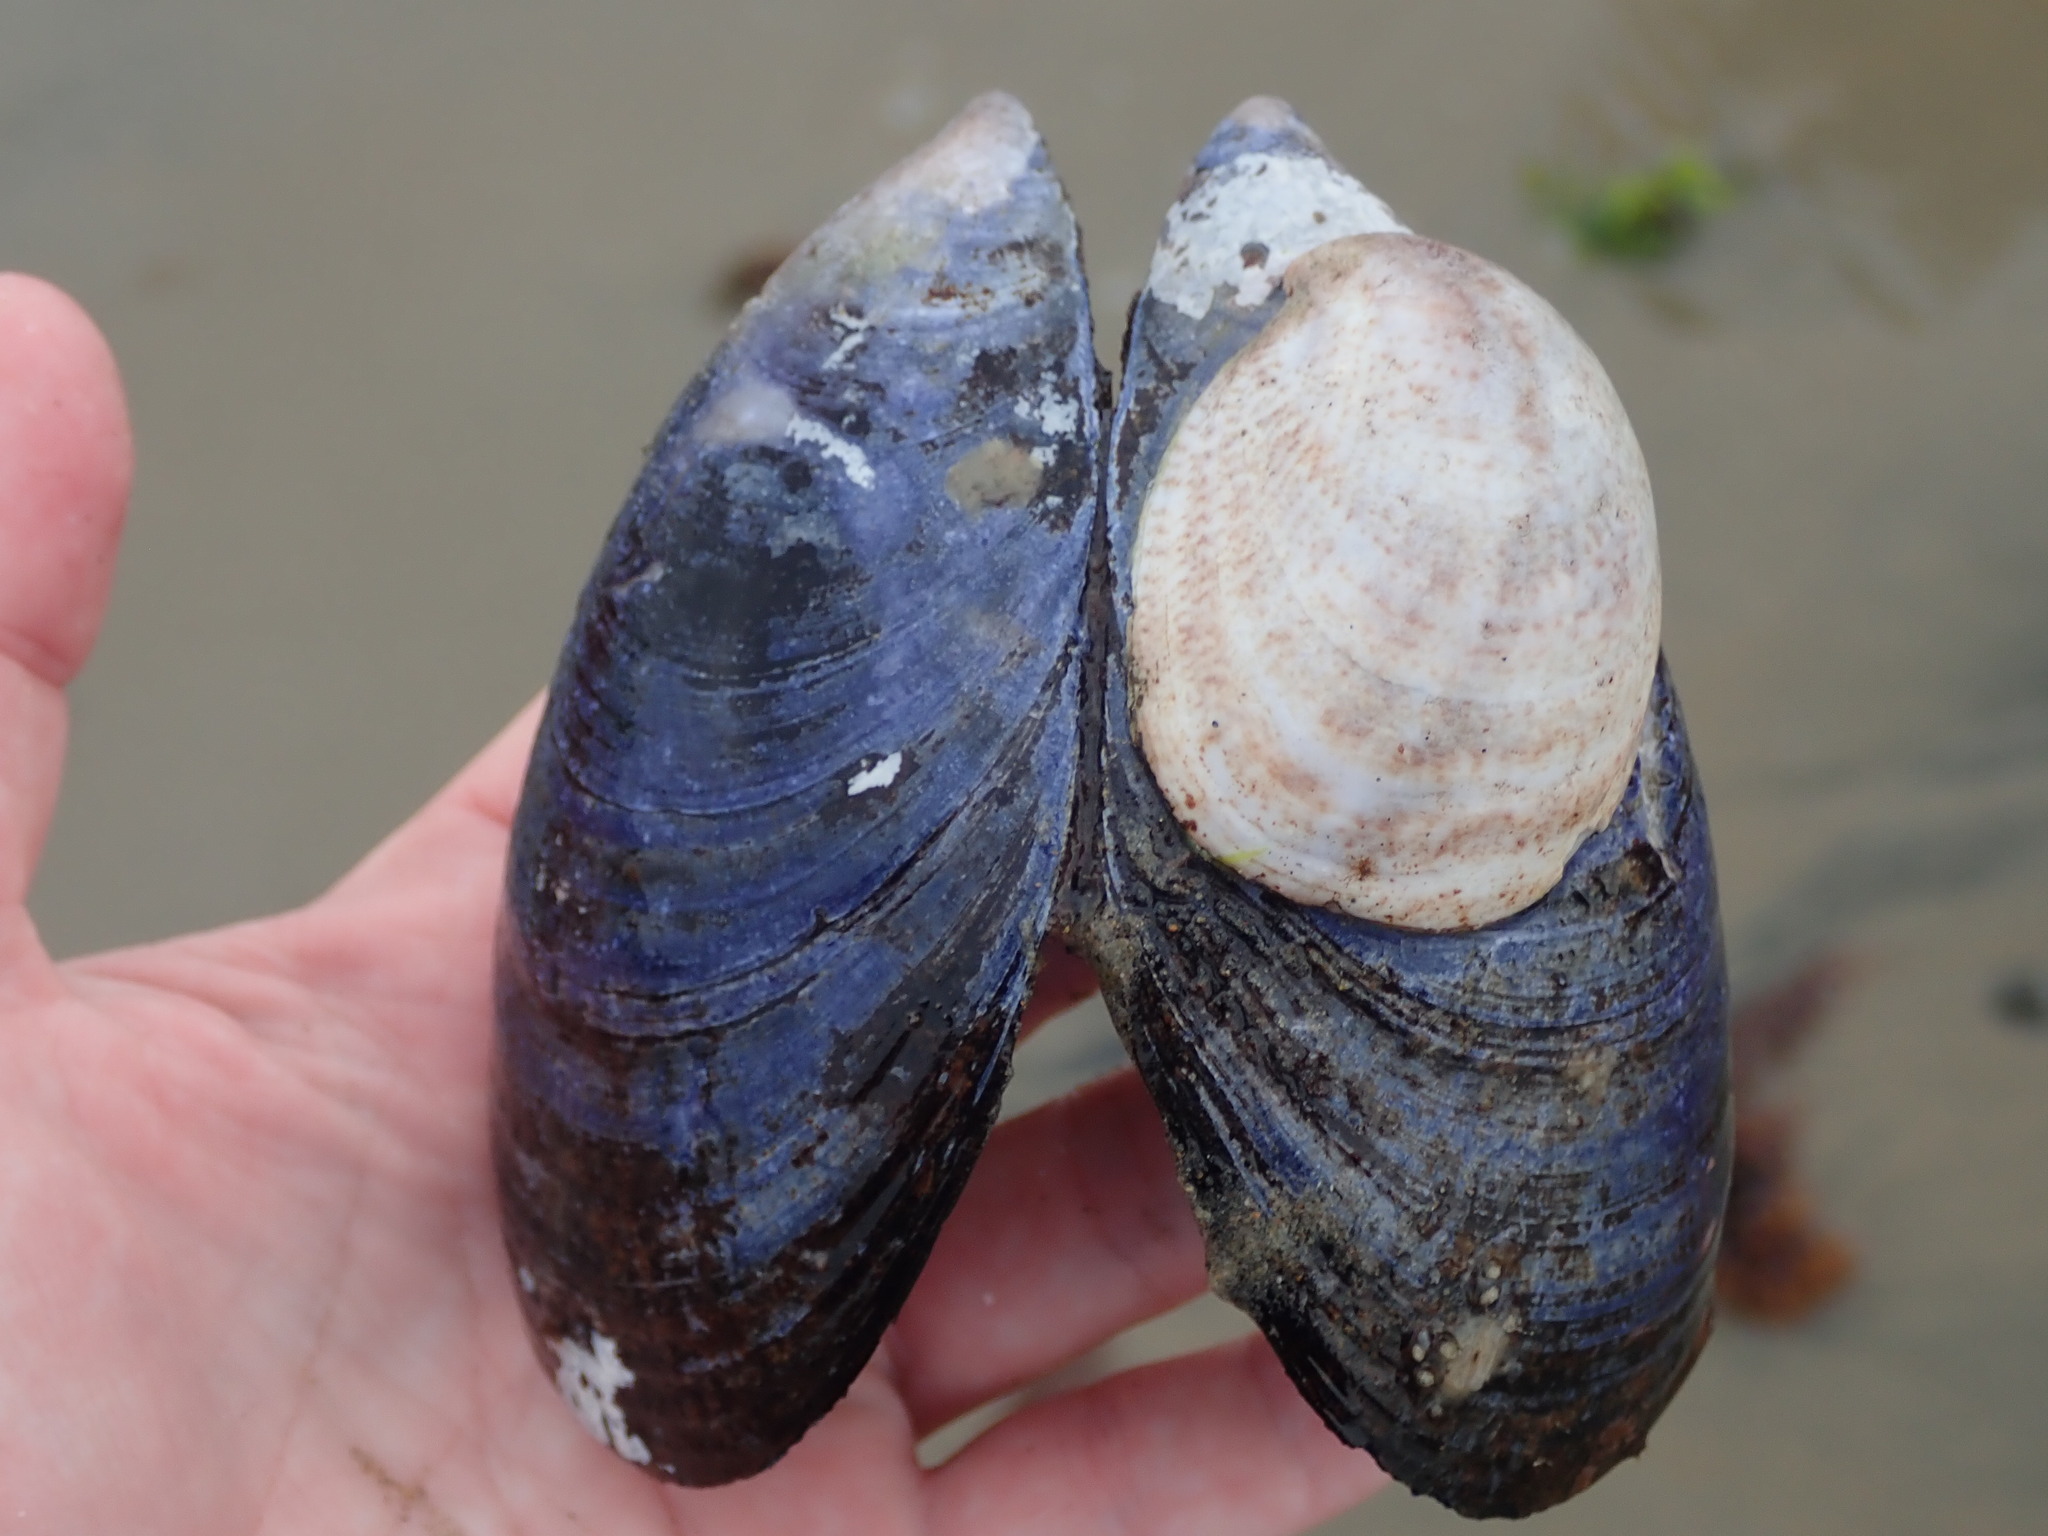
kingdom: Animalia
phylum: Mollusca
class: Bivalvia
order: Mytilida
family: Mytilidae
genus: Mytilus
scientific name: Mytilus edulis
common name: Blue mussel
